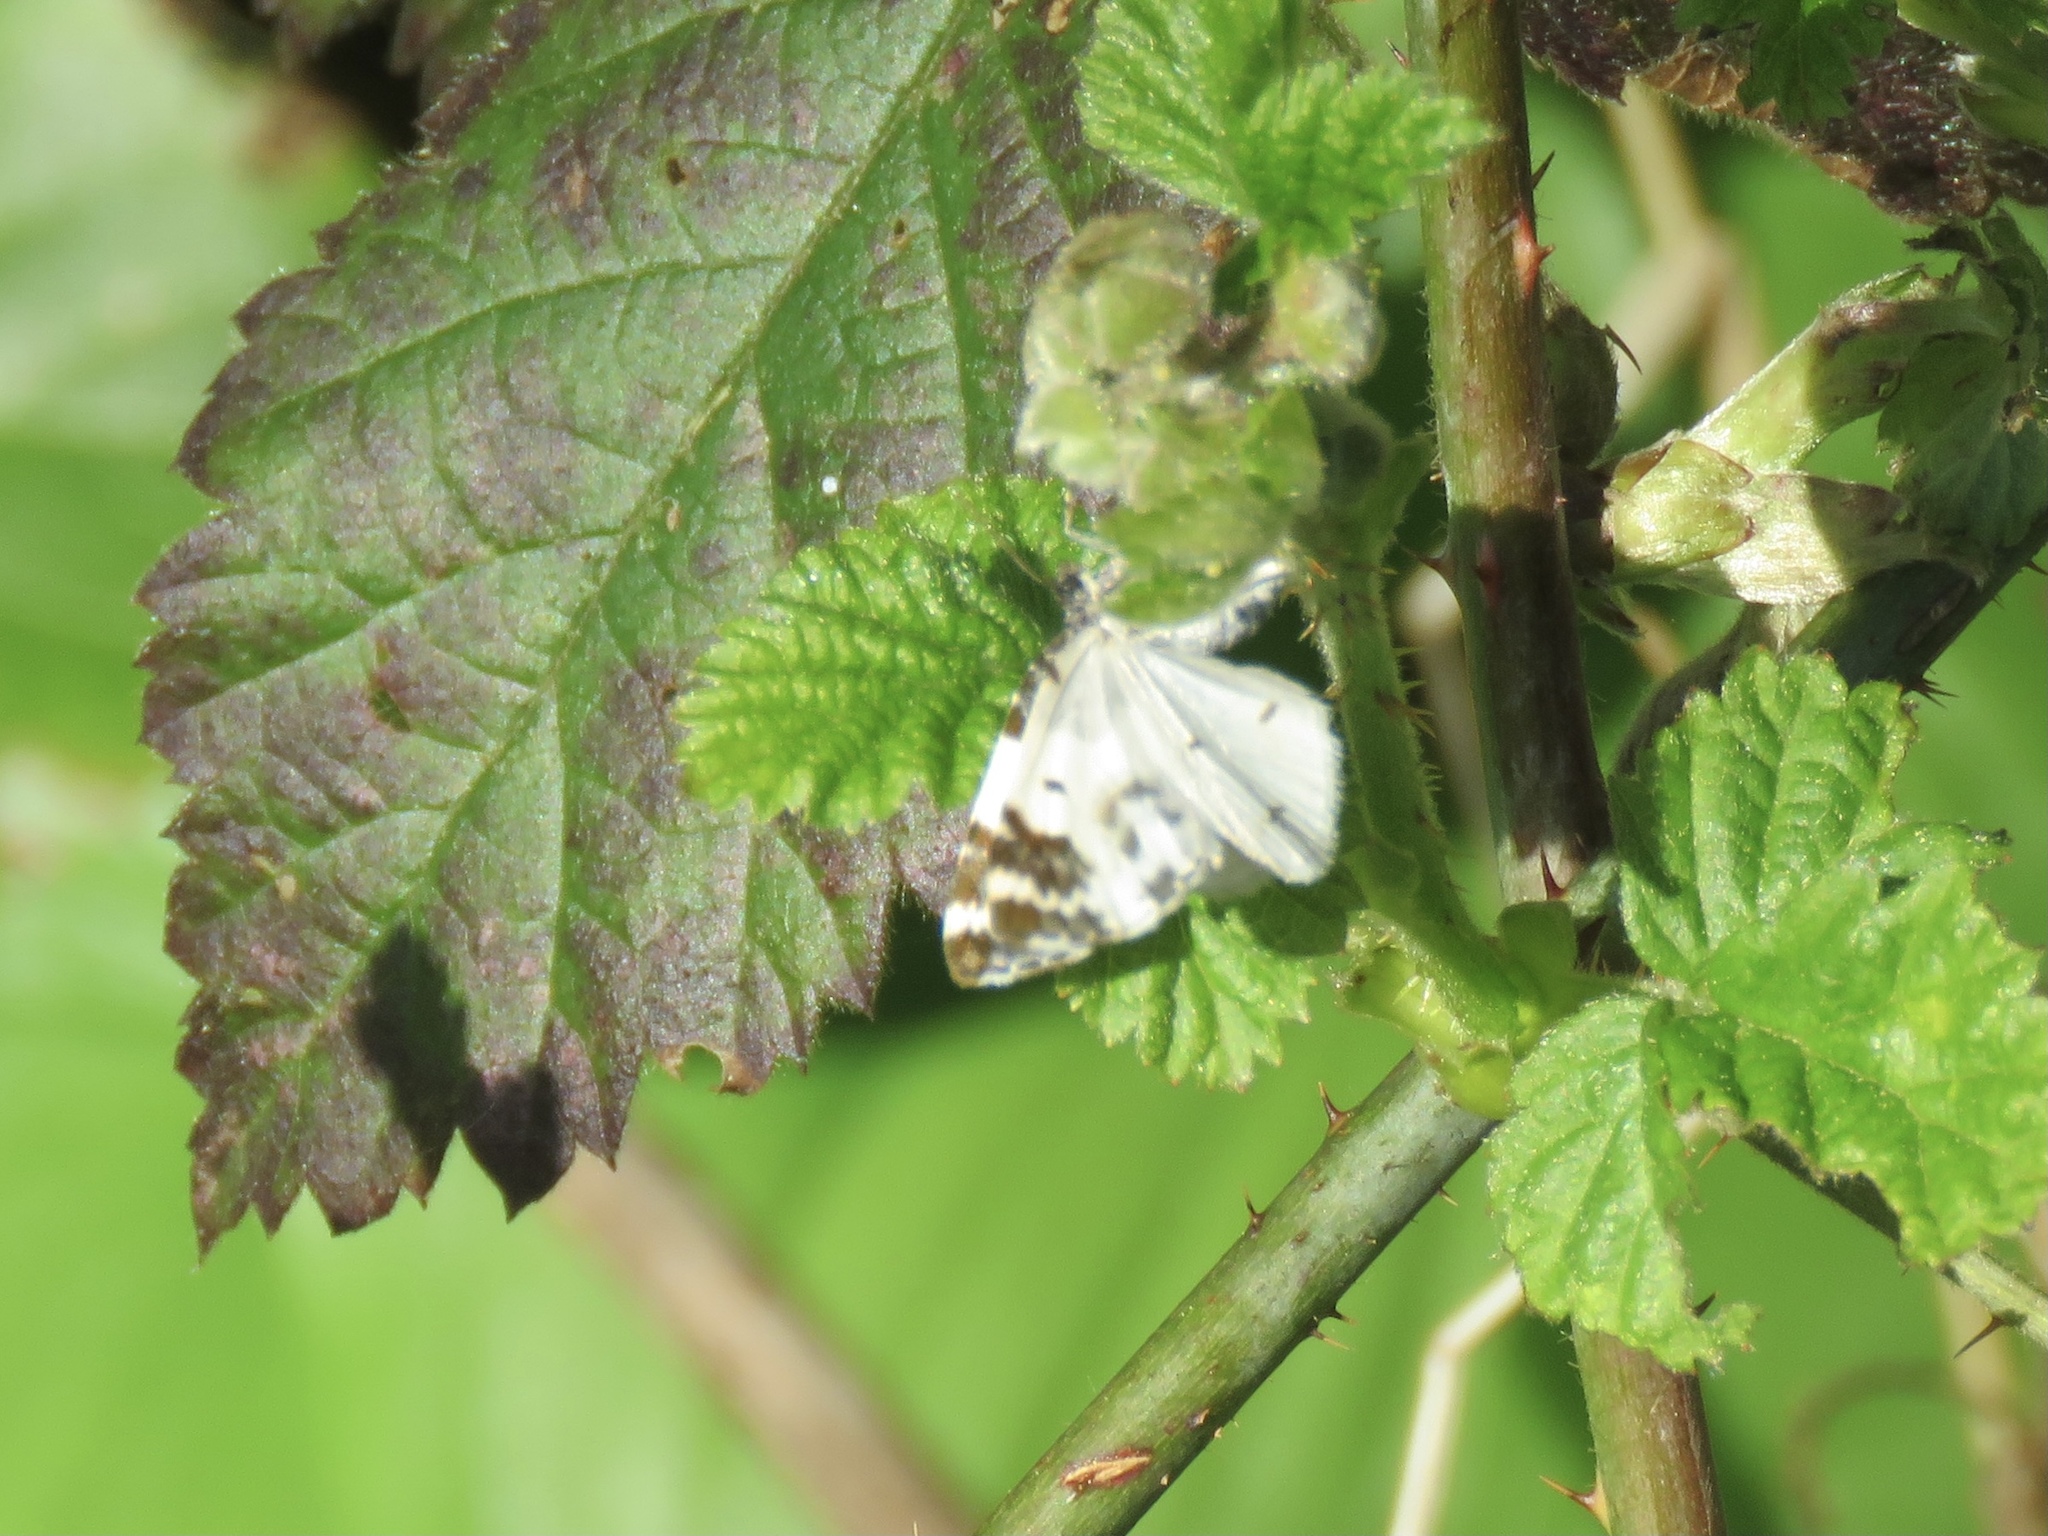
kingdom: Animalia
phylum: Arthropoda
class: Insecta
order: Lepidoptera
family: Geometridae
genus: Mesoleuca
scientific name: Mesoleuca gratulata
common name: Half-white carpet moth
